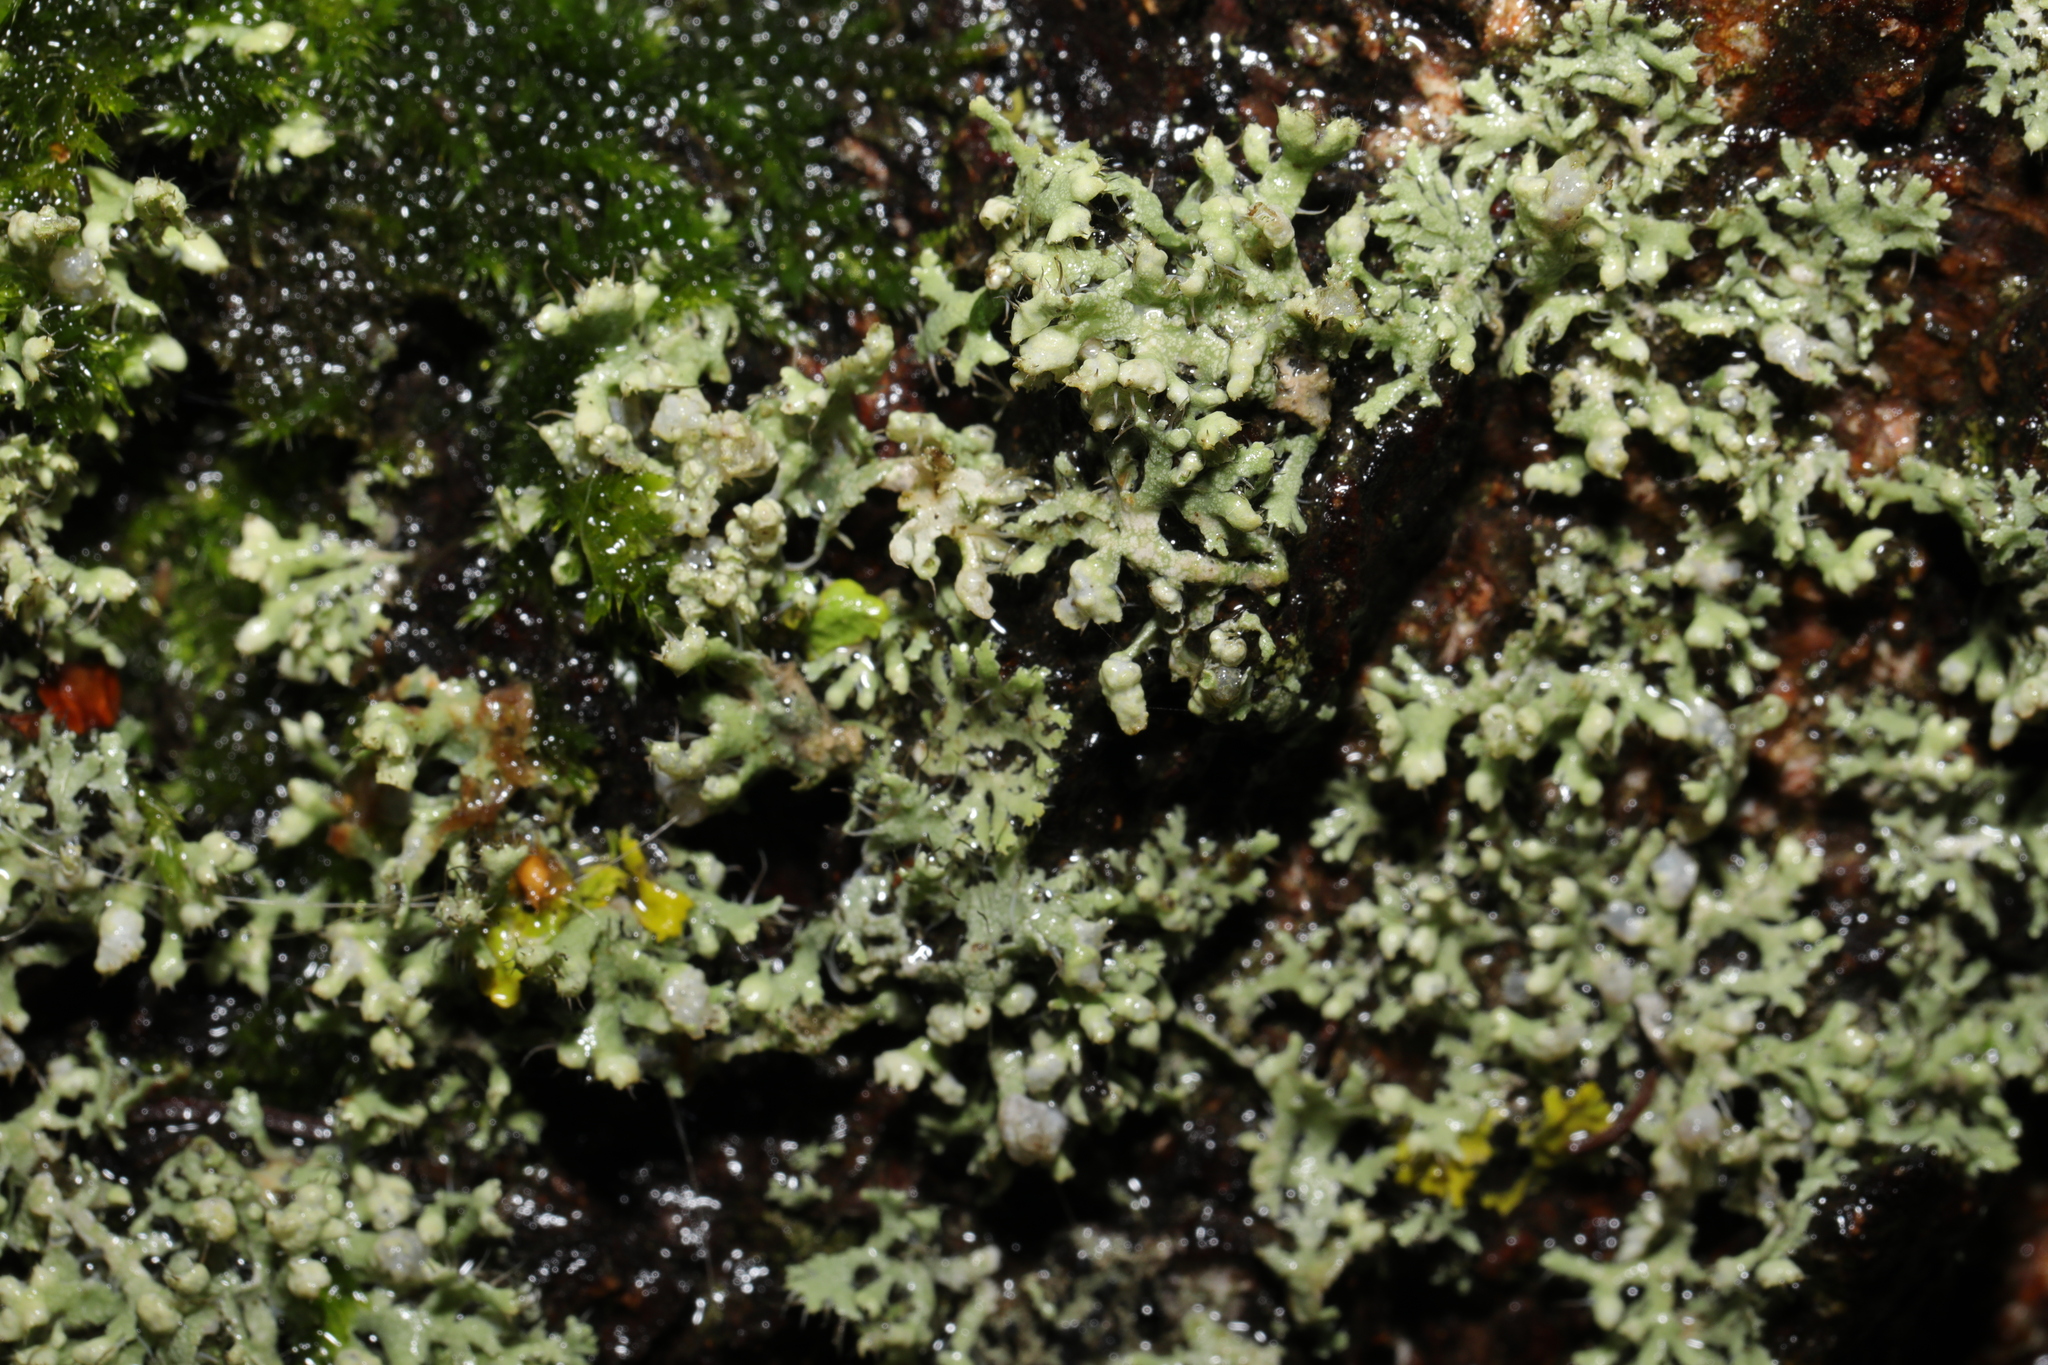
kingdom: Fungi
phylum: Ascomycota
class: Lecanoromycetes
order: Caliciales
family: Physciaceae
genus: Physcia
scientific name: Physcia adscendens
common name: Hooded rosette lichen
